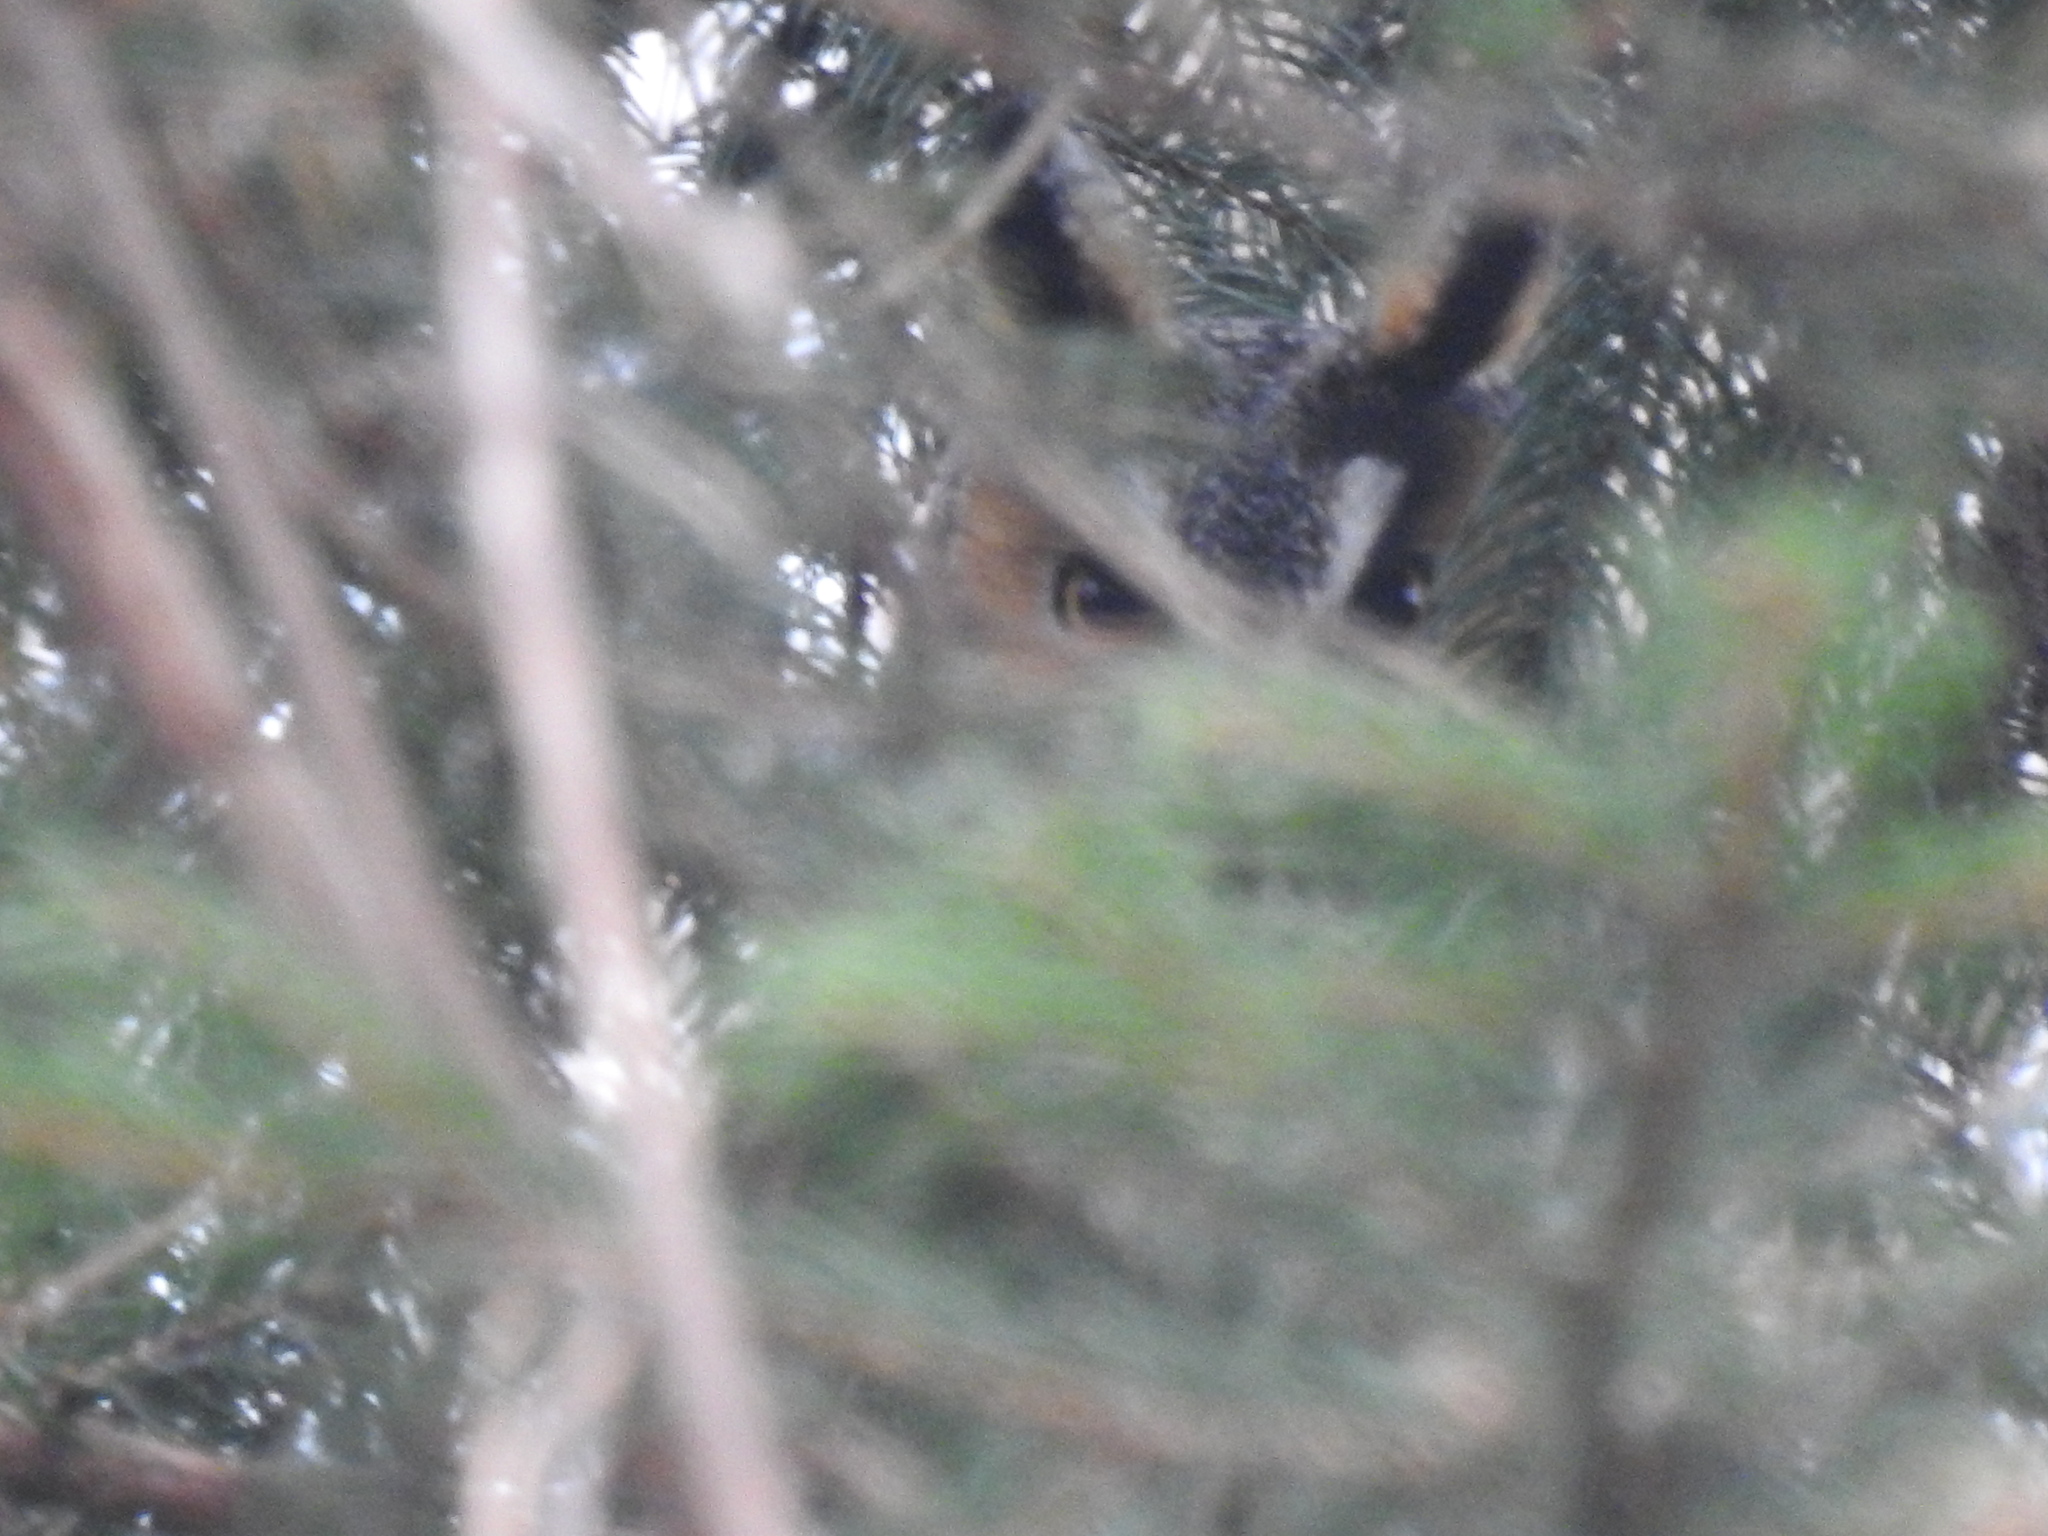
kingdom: Animalia
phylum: Chordata
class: Aves
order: Strigiformes
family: Strigidae
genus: Asio
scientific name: Asio otus
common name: Long-eared owl
